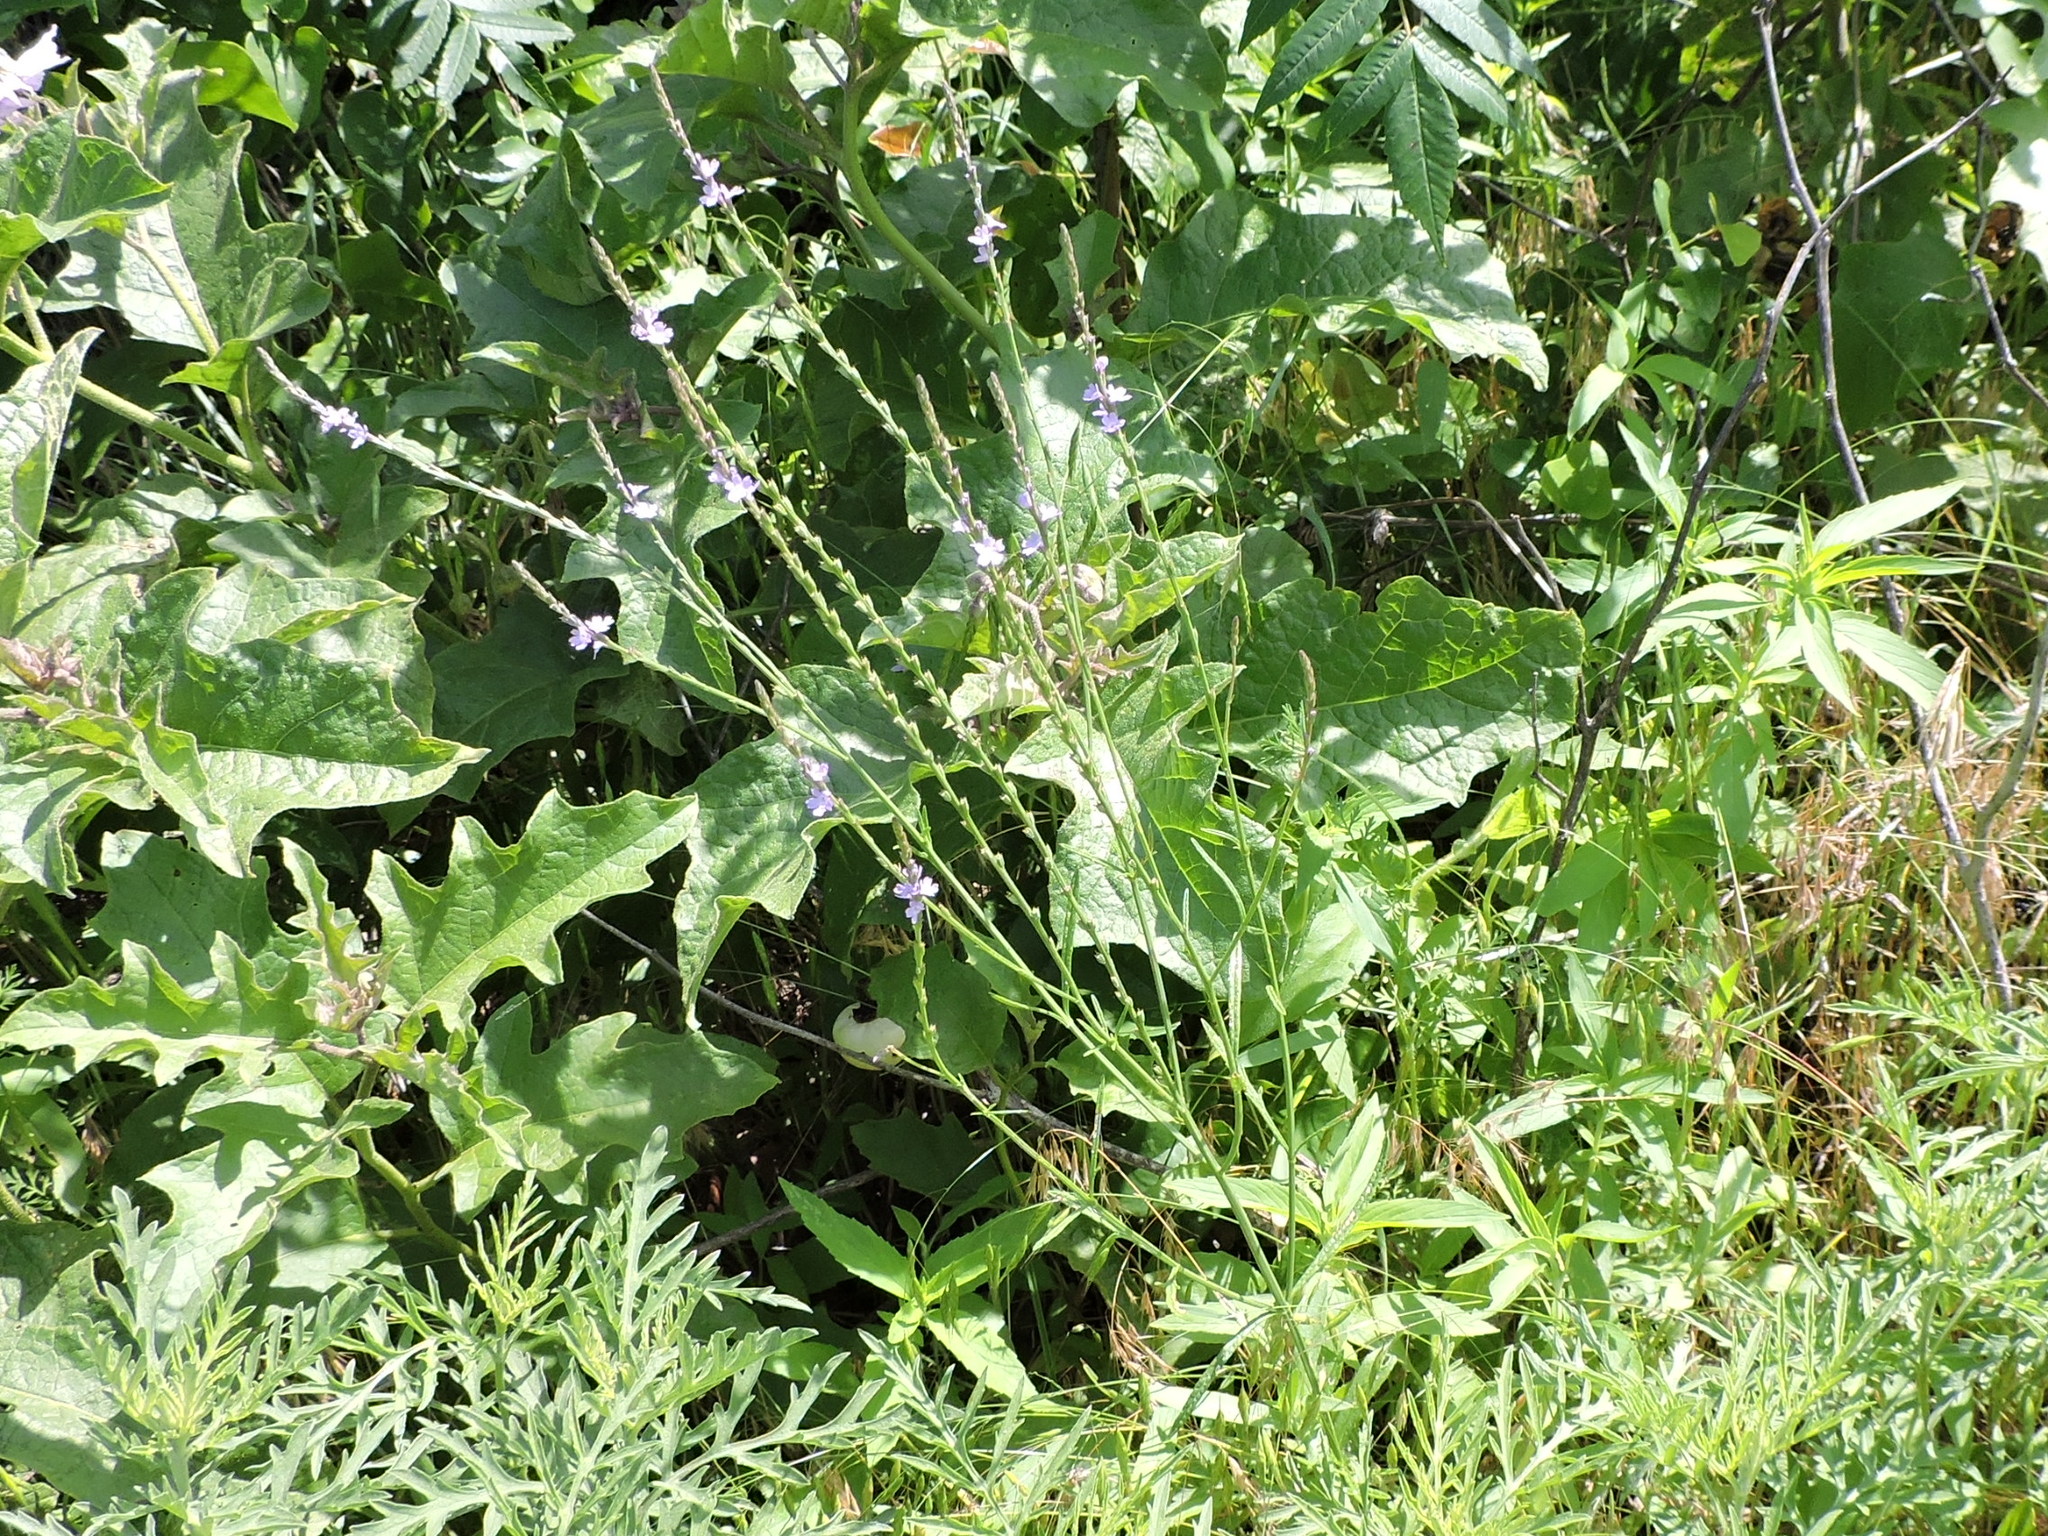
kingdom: Plantae
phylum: Tracheophyta
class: Magnoliopsida
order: Lamiales
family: Verbenaceae
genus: Verbena
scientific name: Verbena halei
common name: Texas vervain
